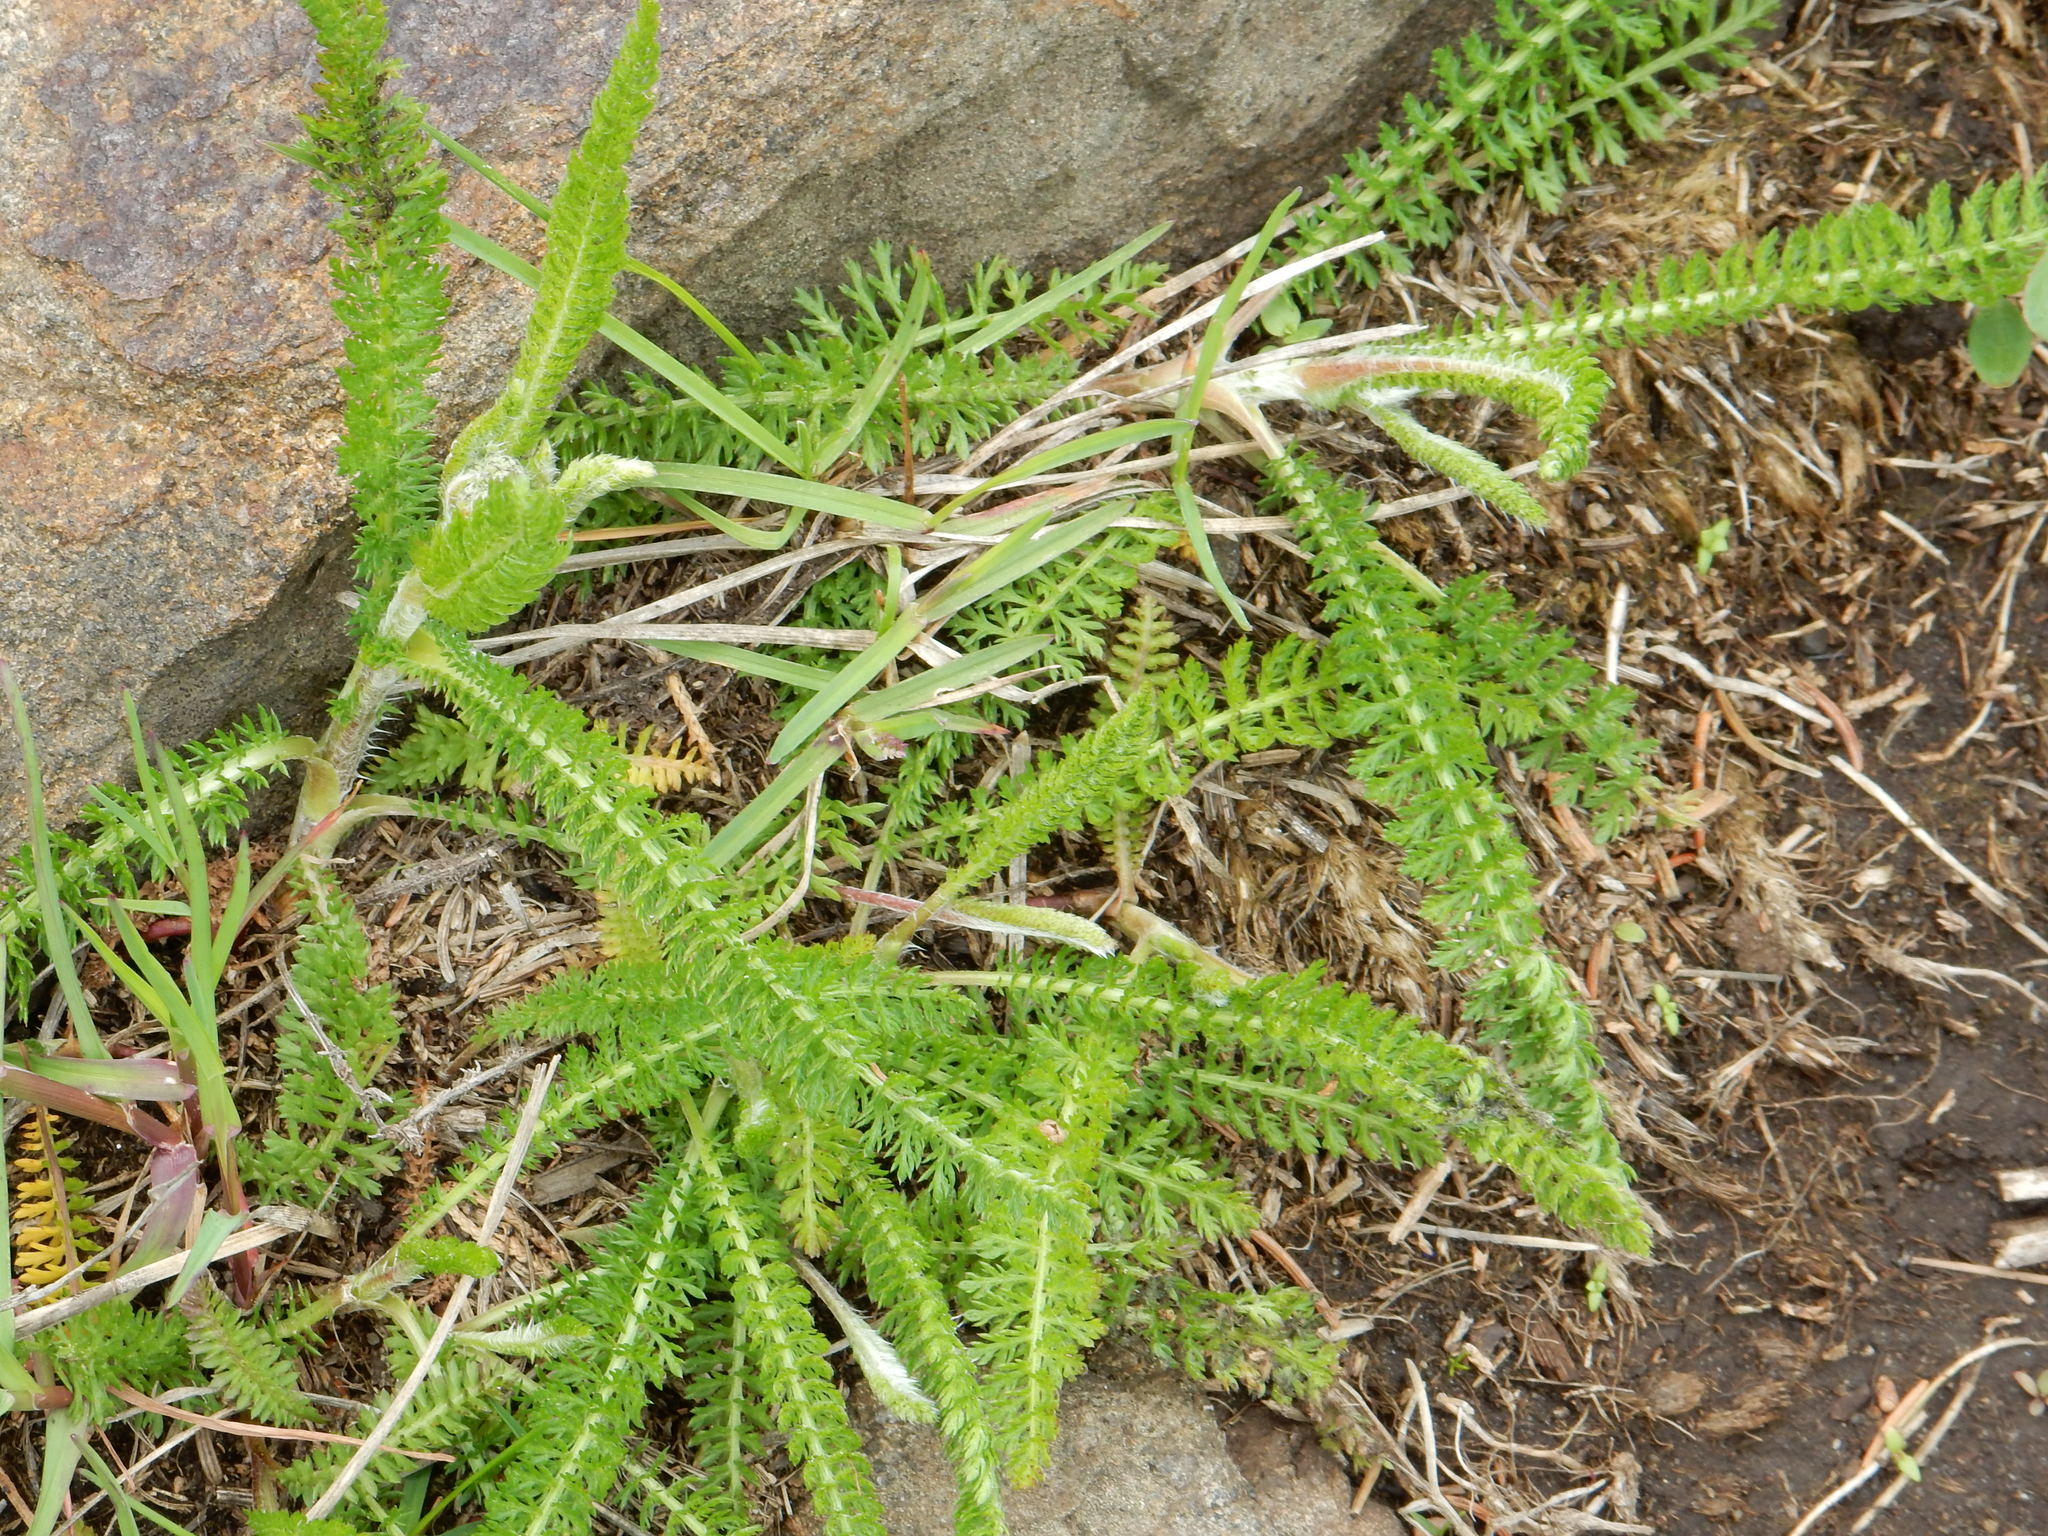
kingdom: Plantae
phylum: Tracheophyta
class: Magnoliopsida
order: Asterales
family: Asteraceae
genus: Achillea
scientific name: Achillea millefolium
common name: Yarrow
